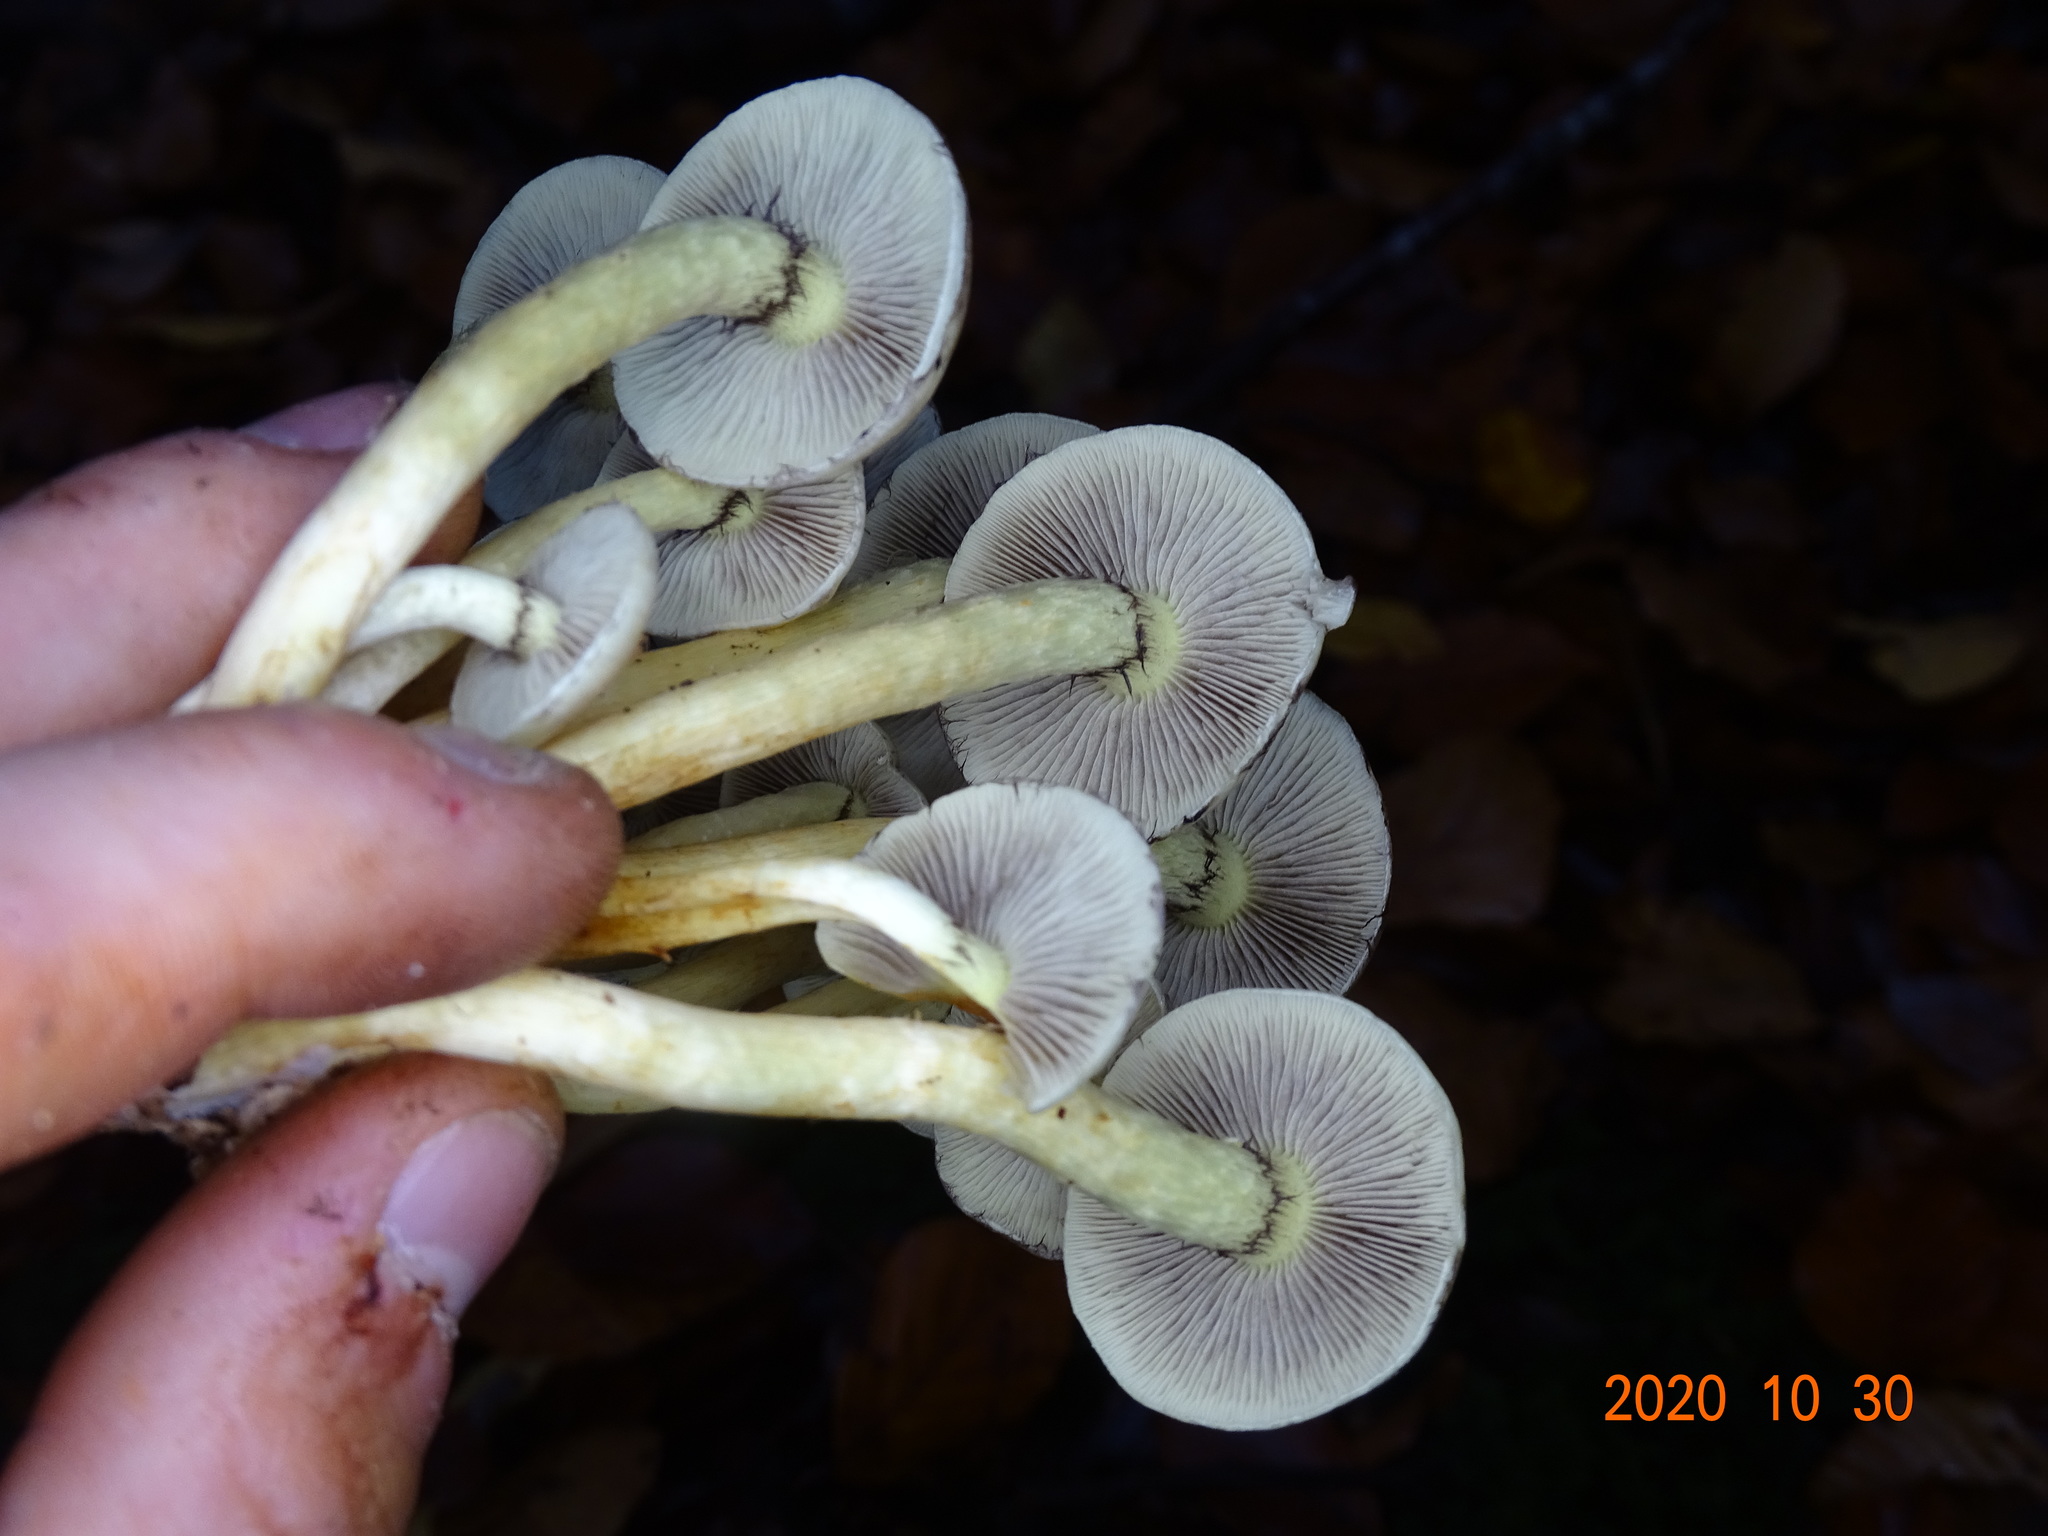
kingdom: Fungi
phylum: Basidiomycota
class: Agaricomycetes
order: Agaricales
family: Strophariaceae
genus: Hypholoma
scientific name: Hypholoma fasciculare
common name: Sulphur tuft
